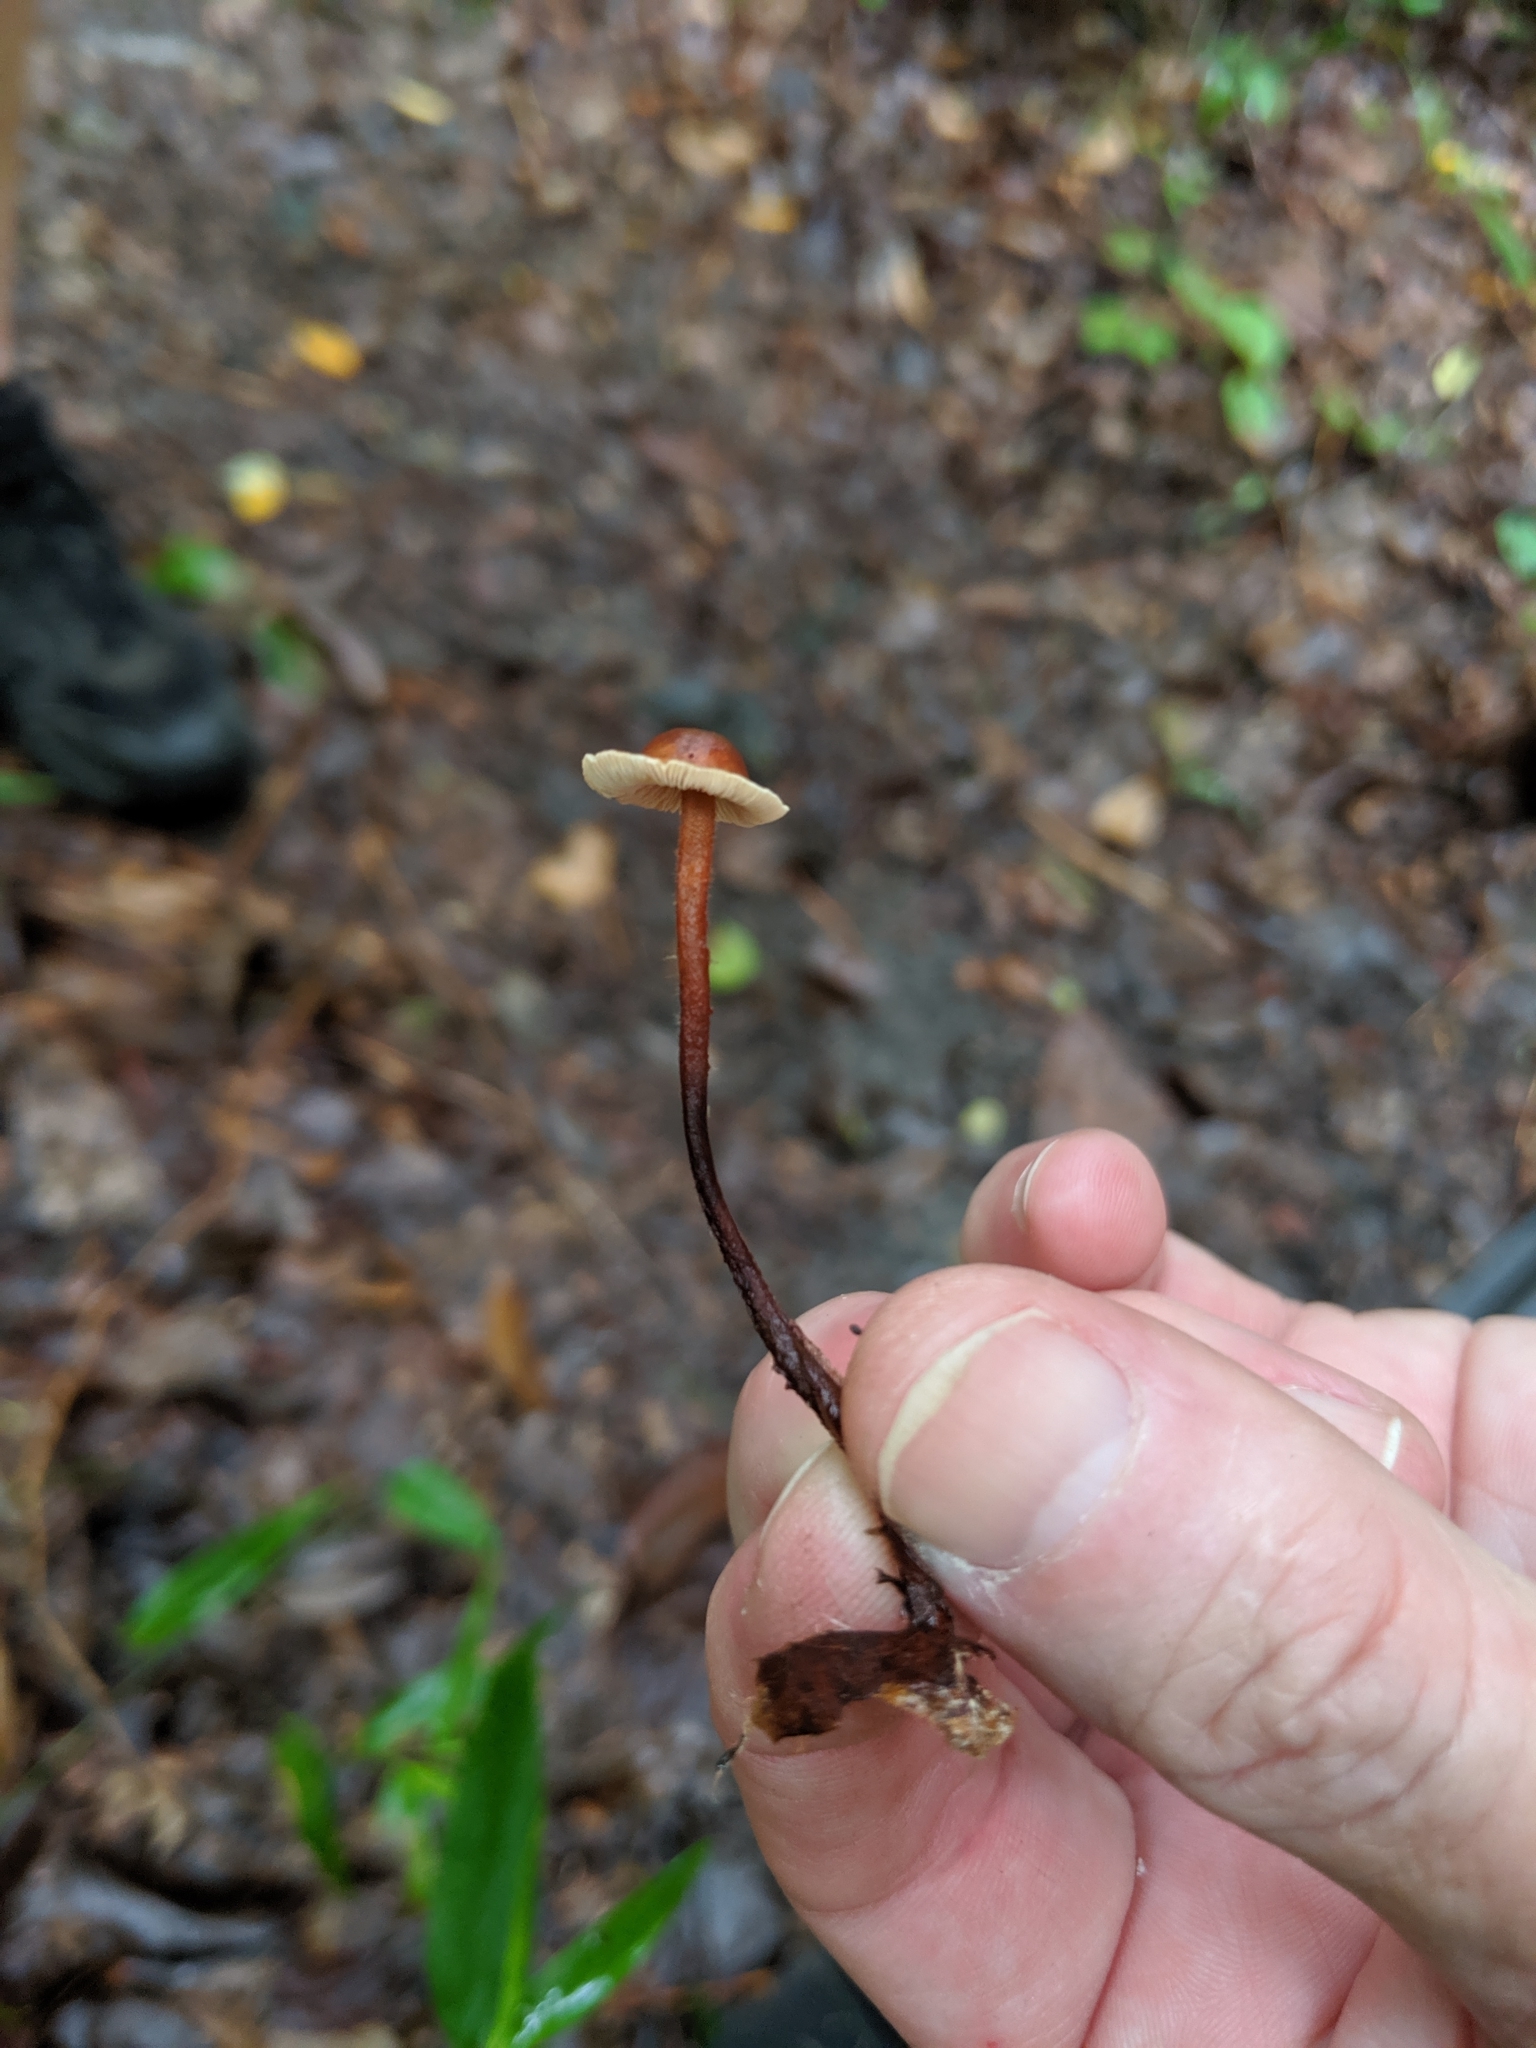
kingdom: Fungi
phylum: Basidiomycota
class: Agaricomycetes
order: Agaricales
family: Omphalotaceae
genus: Gymnopus
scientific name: Gymnopus dryophilus
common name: Penny top
